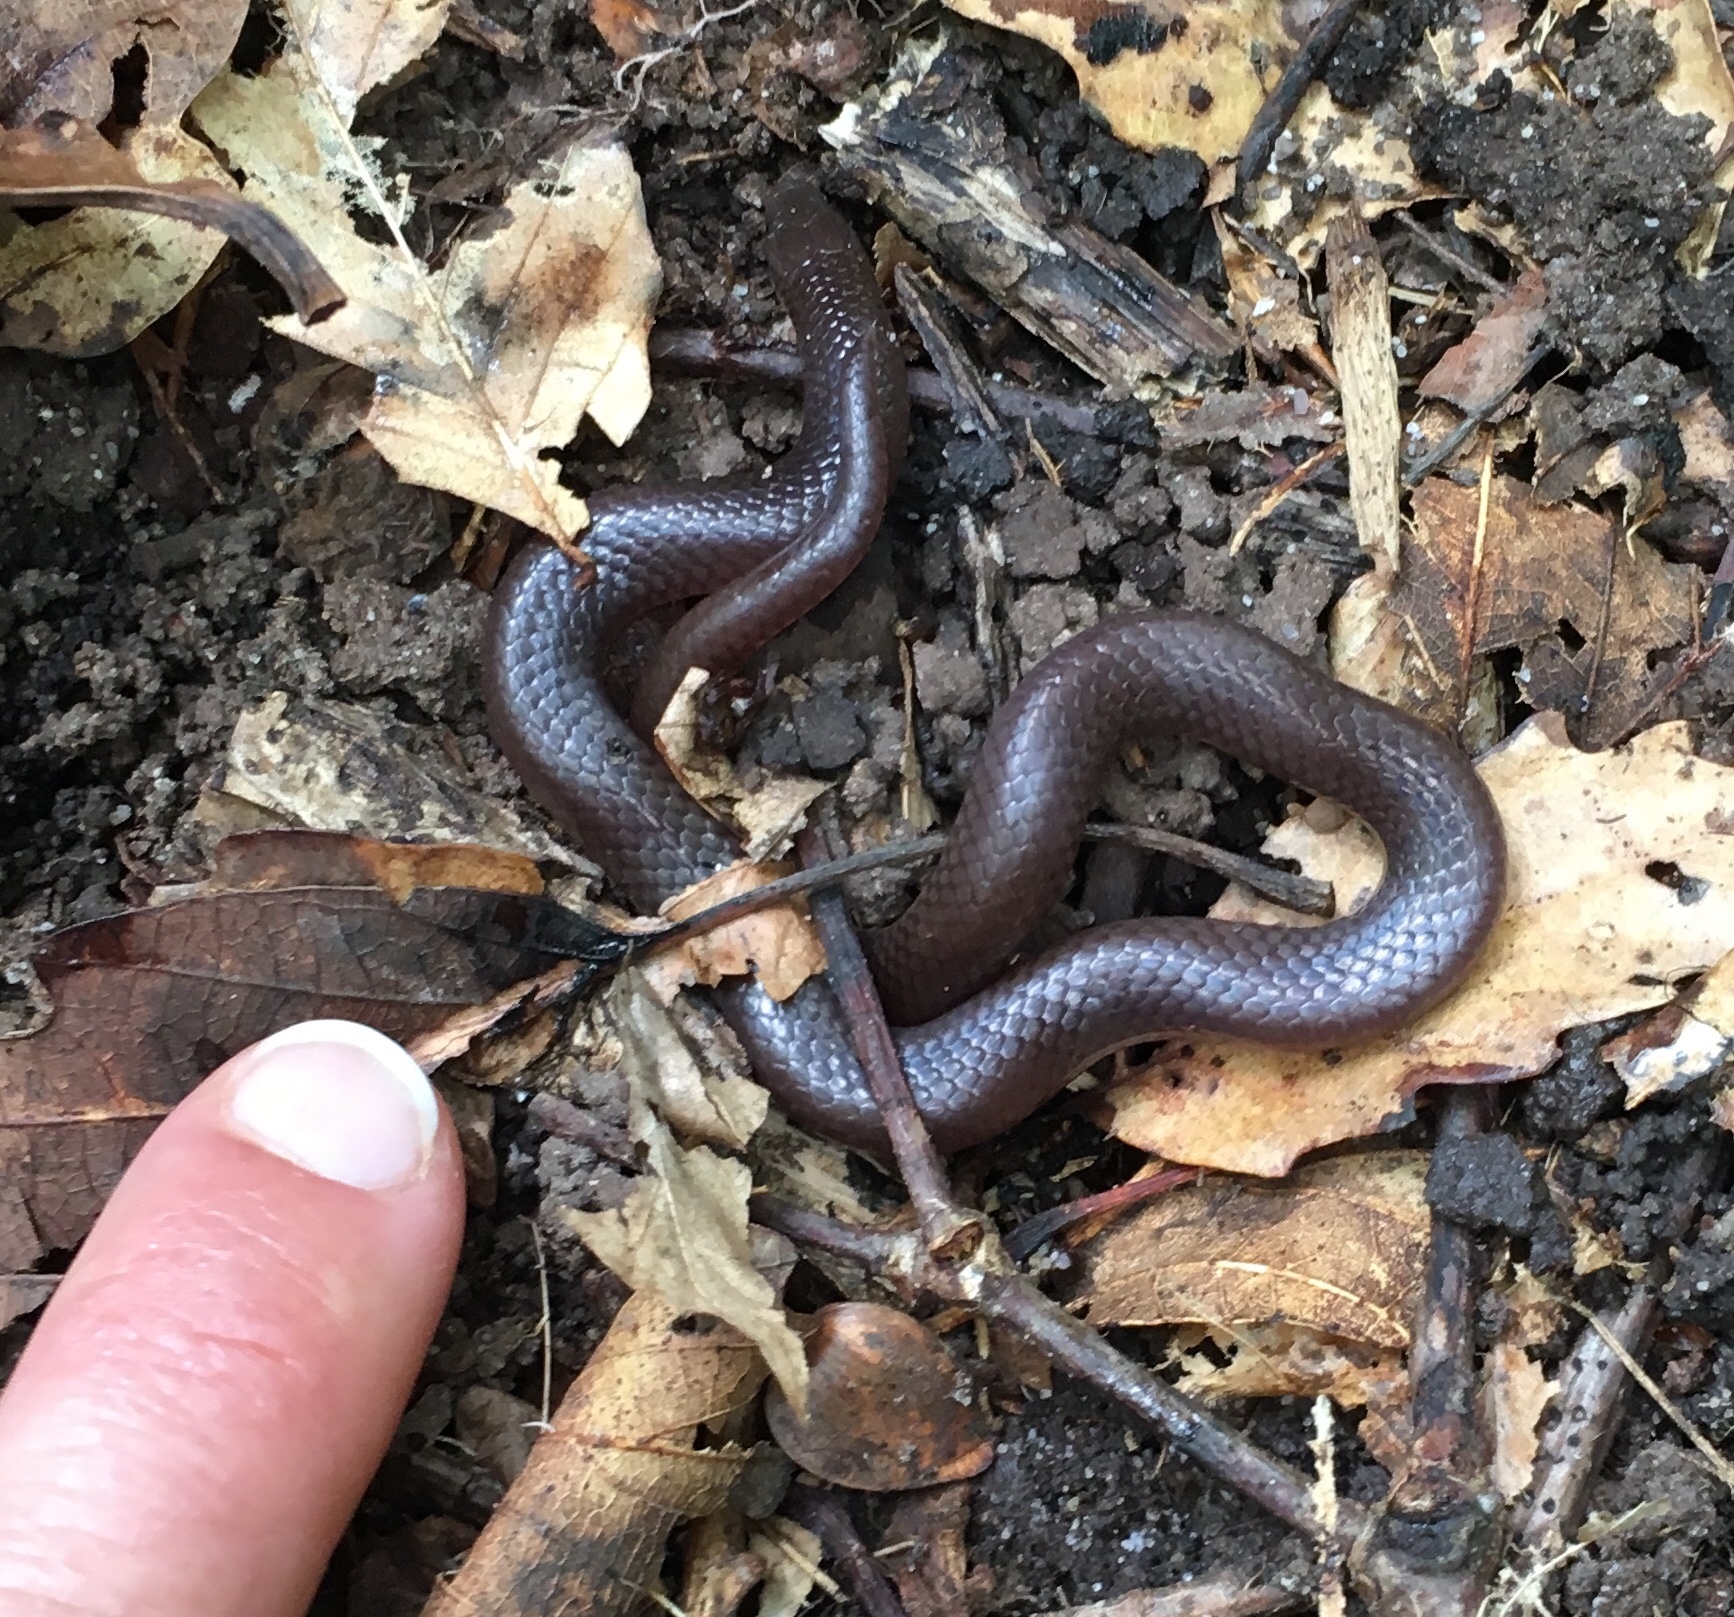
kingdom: Animalia
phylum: Chordata
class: Squamata
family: Colubridae
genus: Carphophis
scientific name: Carphophis amoenus
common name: Eastern worm snake
